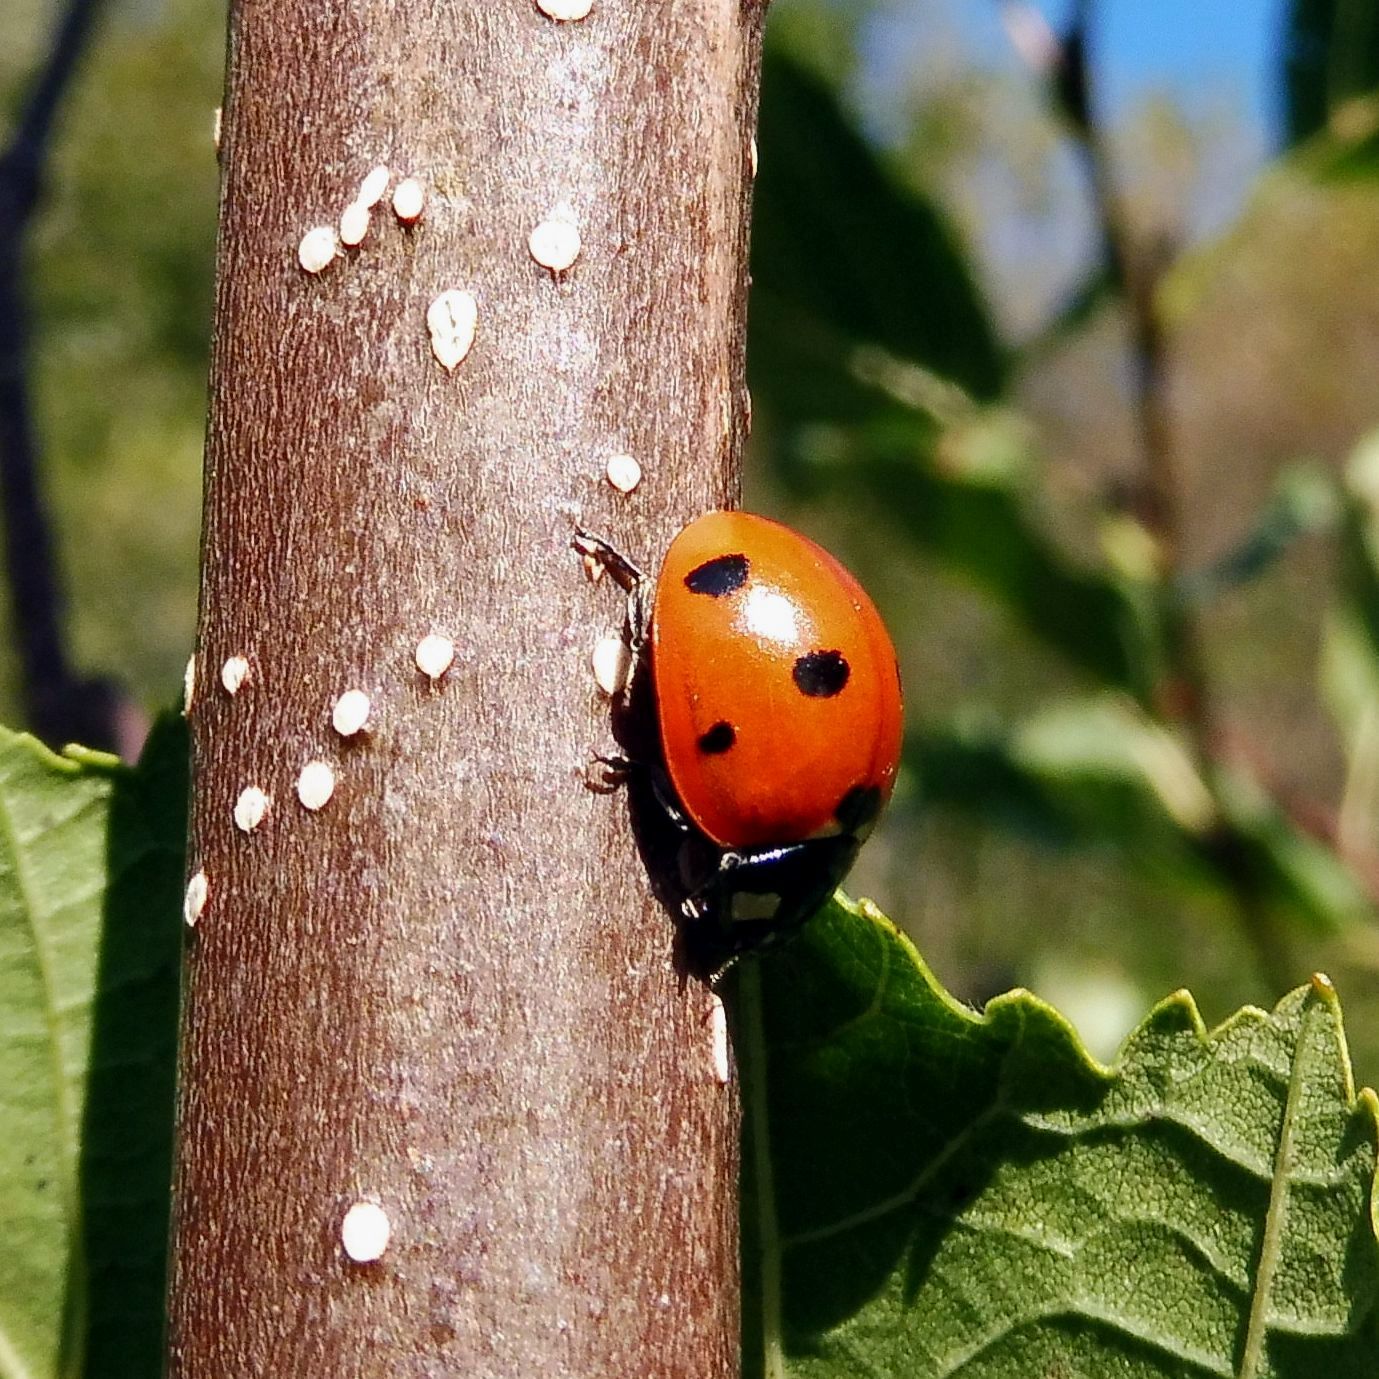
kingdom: Animalia
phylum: Arthropoda
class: Insecta
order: Coleoptera
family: Coccinellidae
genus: Coccinella
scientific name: Coccinella septempunctata
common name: Sevenspotted lady beetle
